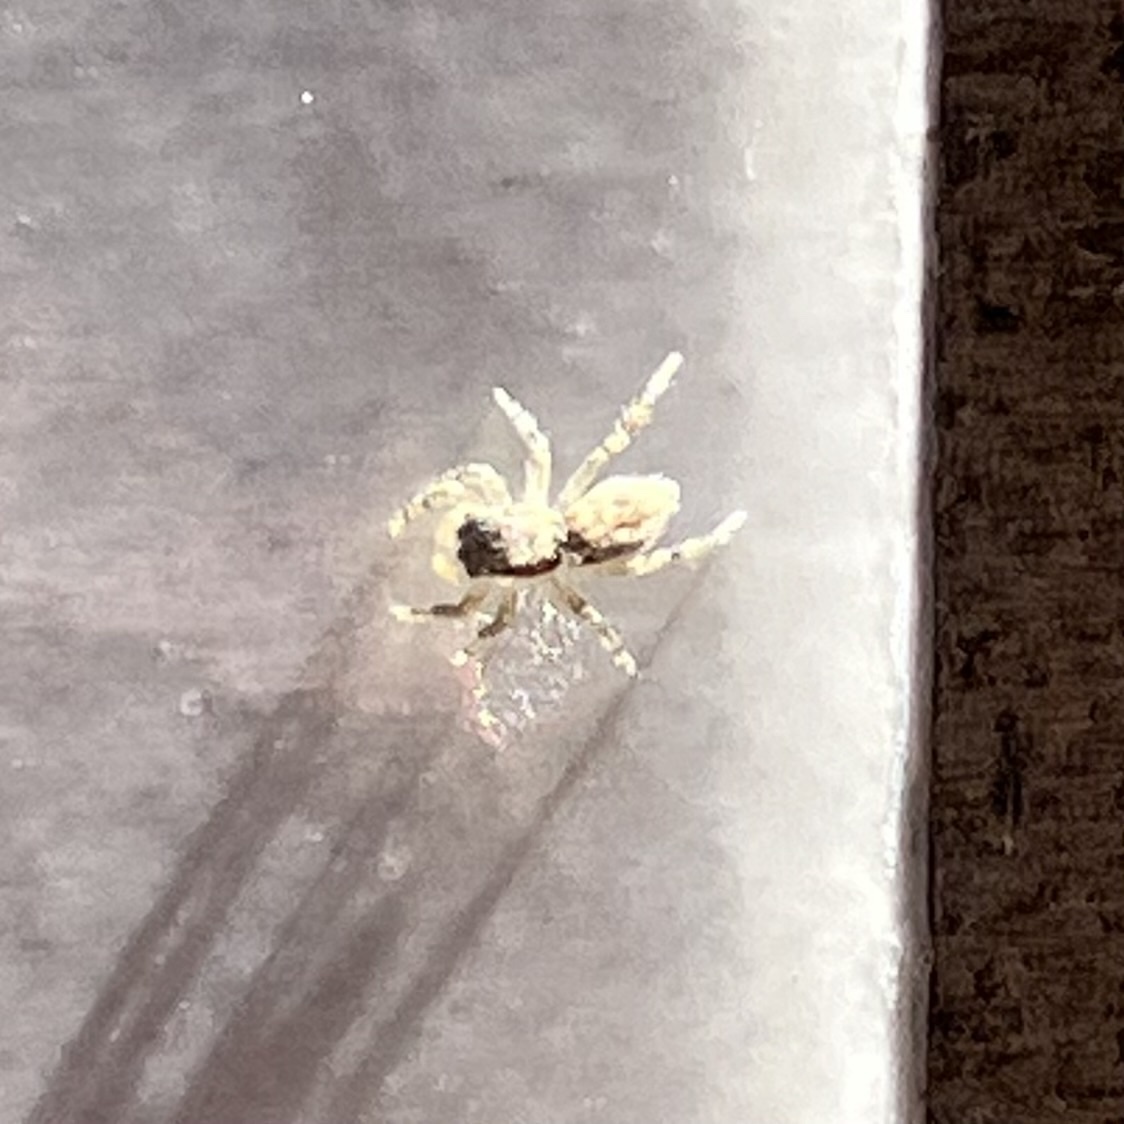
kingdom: Animalia
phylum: Arthropoda
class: Arachnida
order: Araneae
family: Salticidae
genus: Menemerus
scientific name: Menemerus bivittatus
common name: Gray wall jumper
